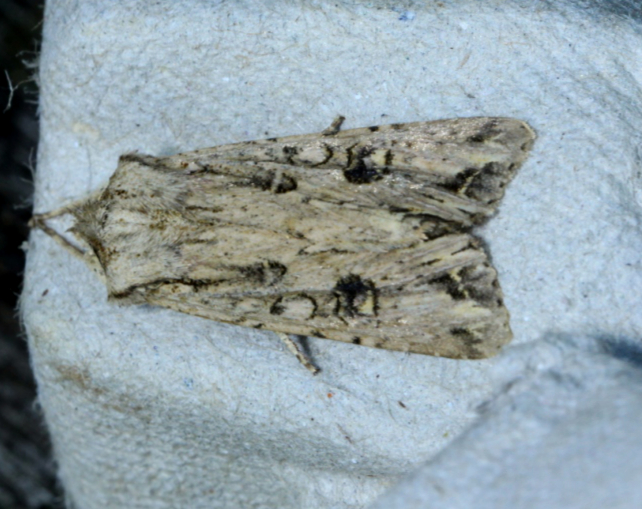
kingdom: Animalia
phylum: Arthropoda
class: Insecta
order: Lepidoptera
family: Noctuidae
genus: Ichneutica
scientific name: Ichneutica lignana
